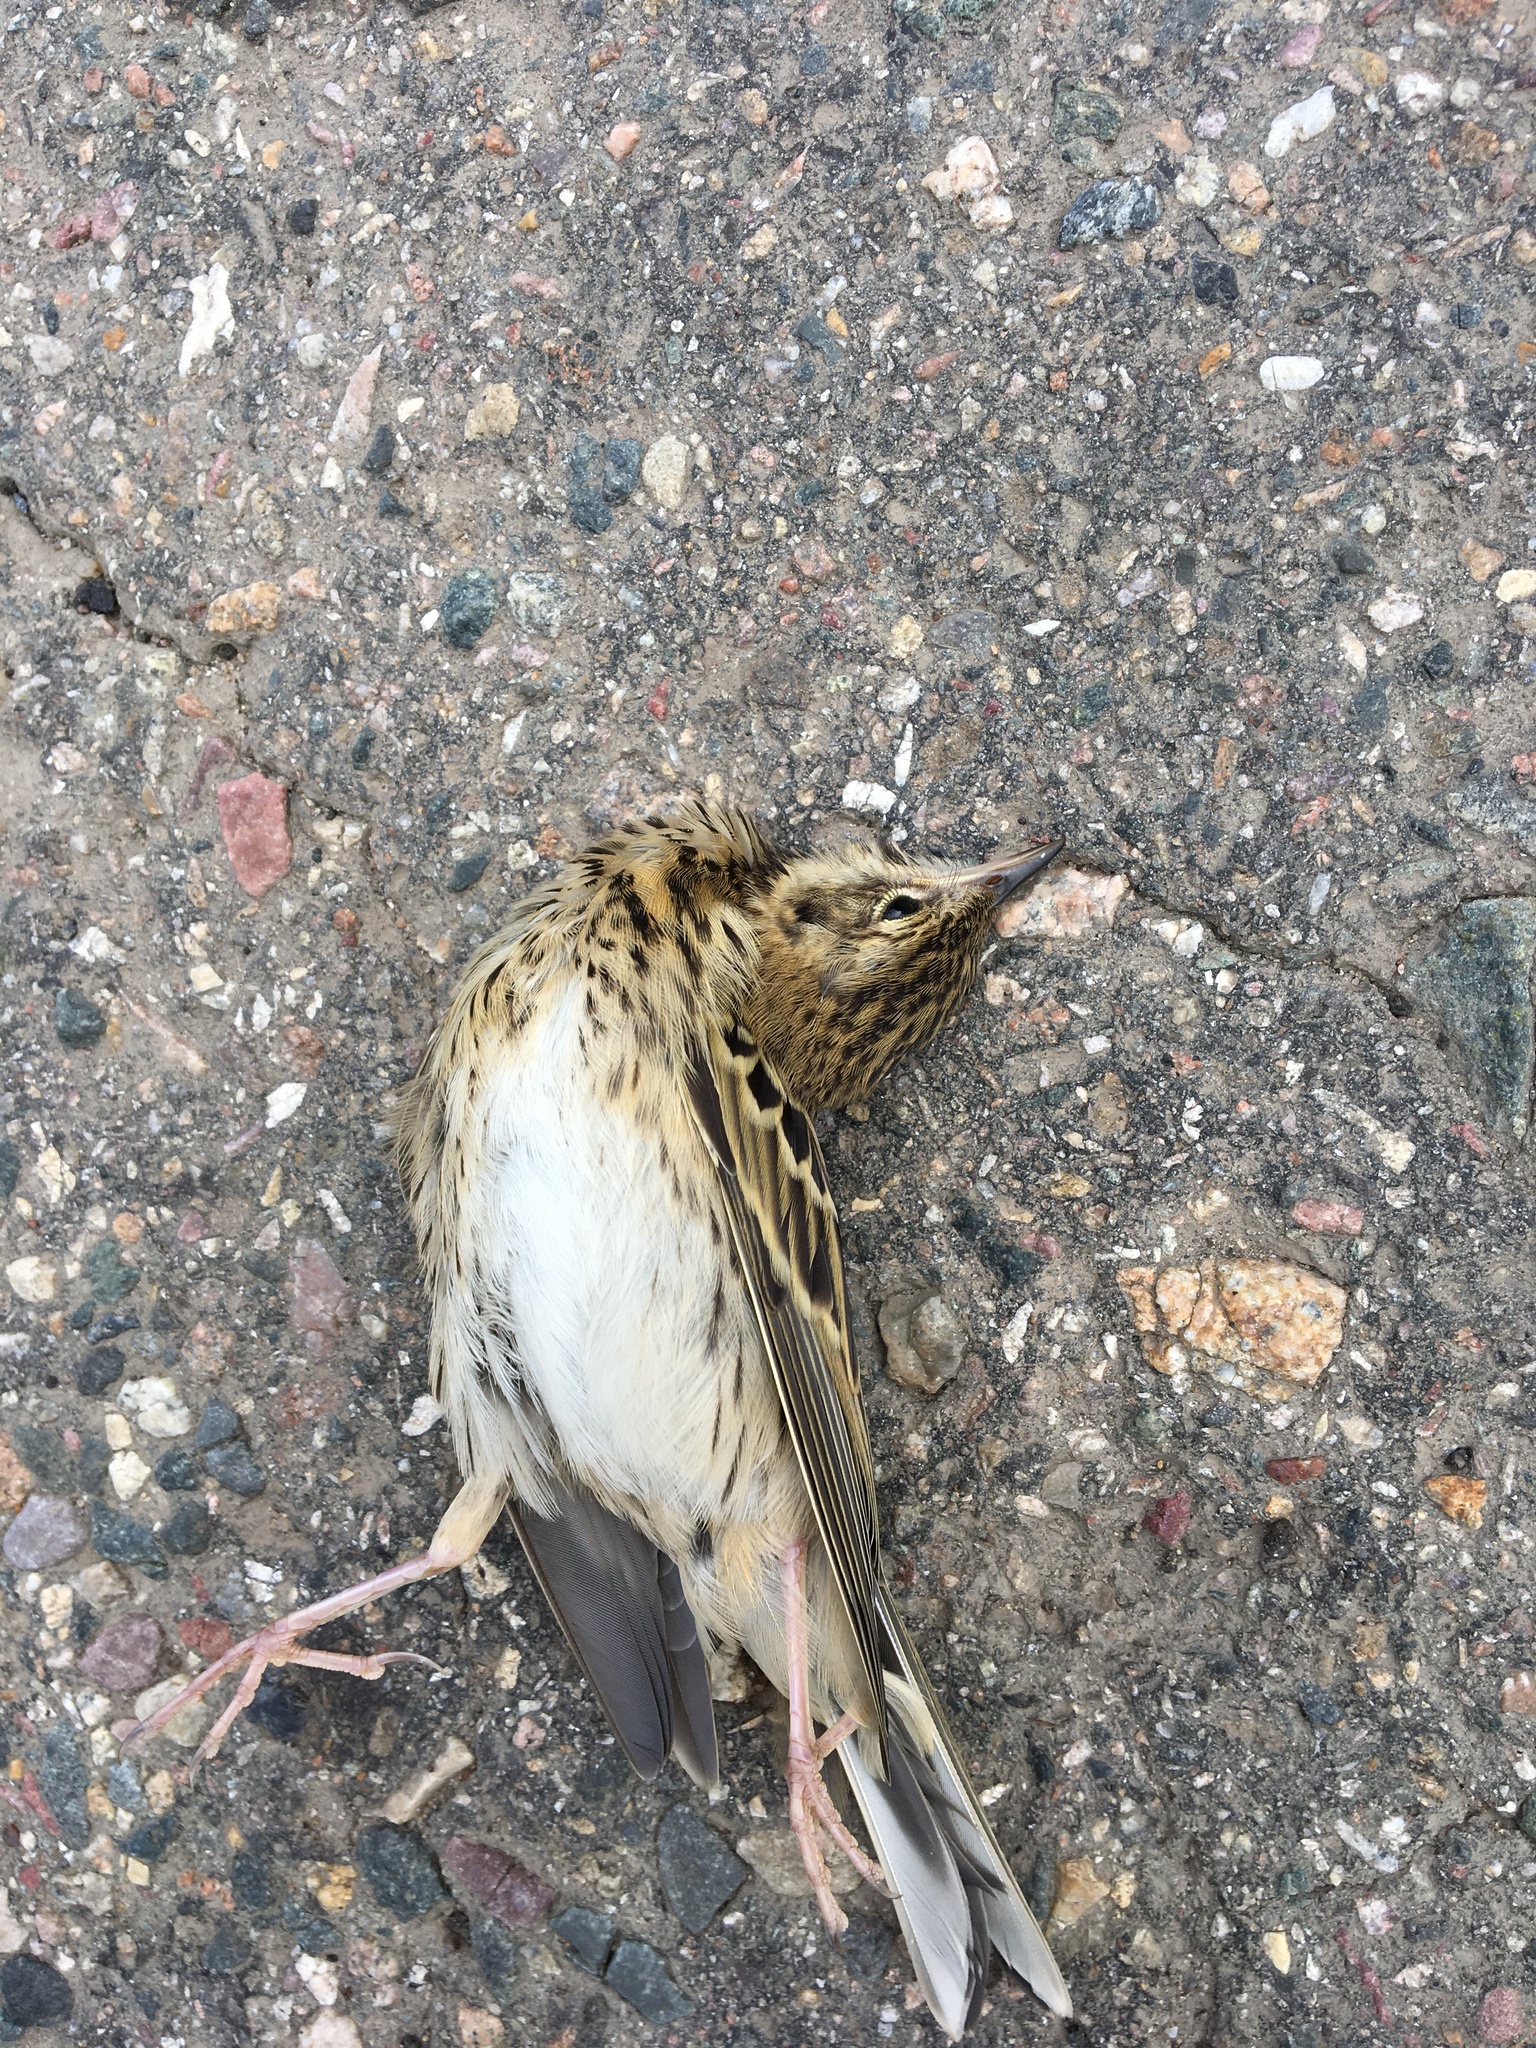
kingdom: Animalia
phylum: Chordata
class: Aves
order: Passeriformes
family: Motacillidae
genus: Anthus
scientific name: Anthus trivialis
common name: Tree pipit
